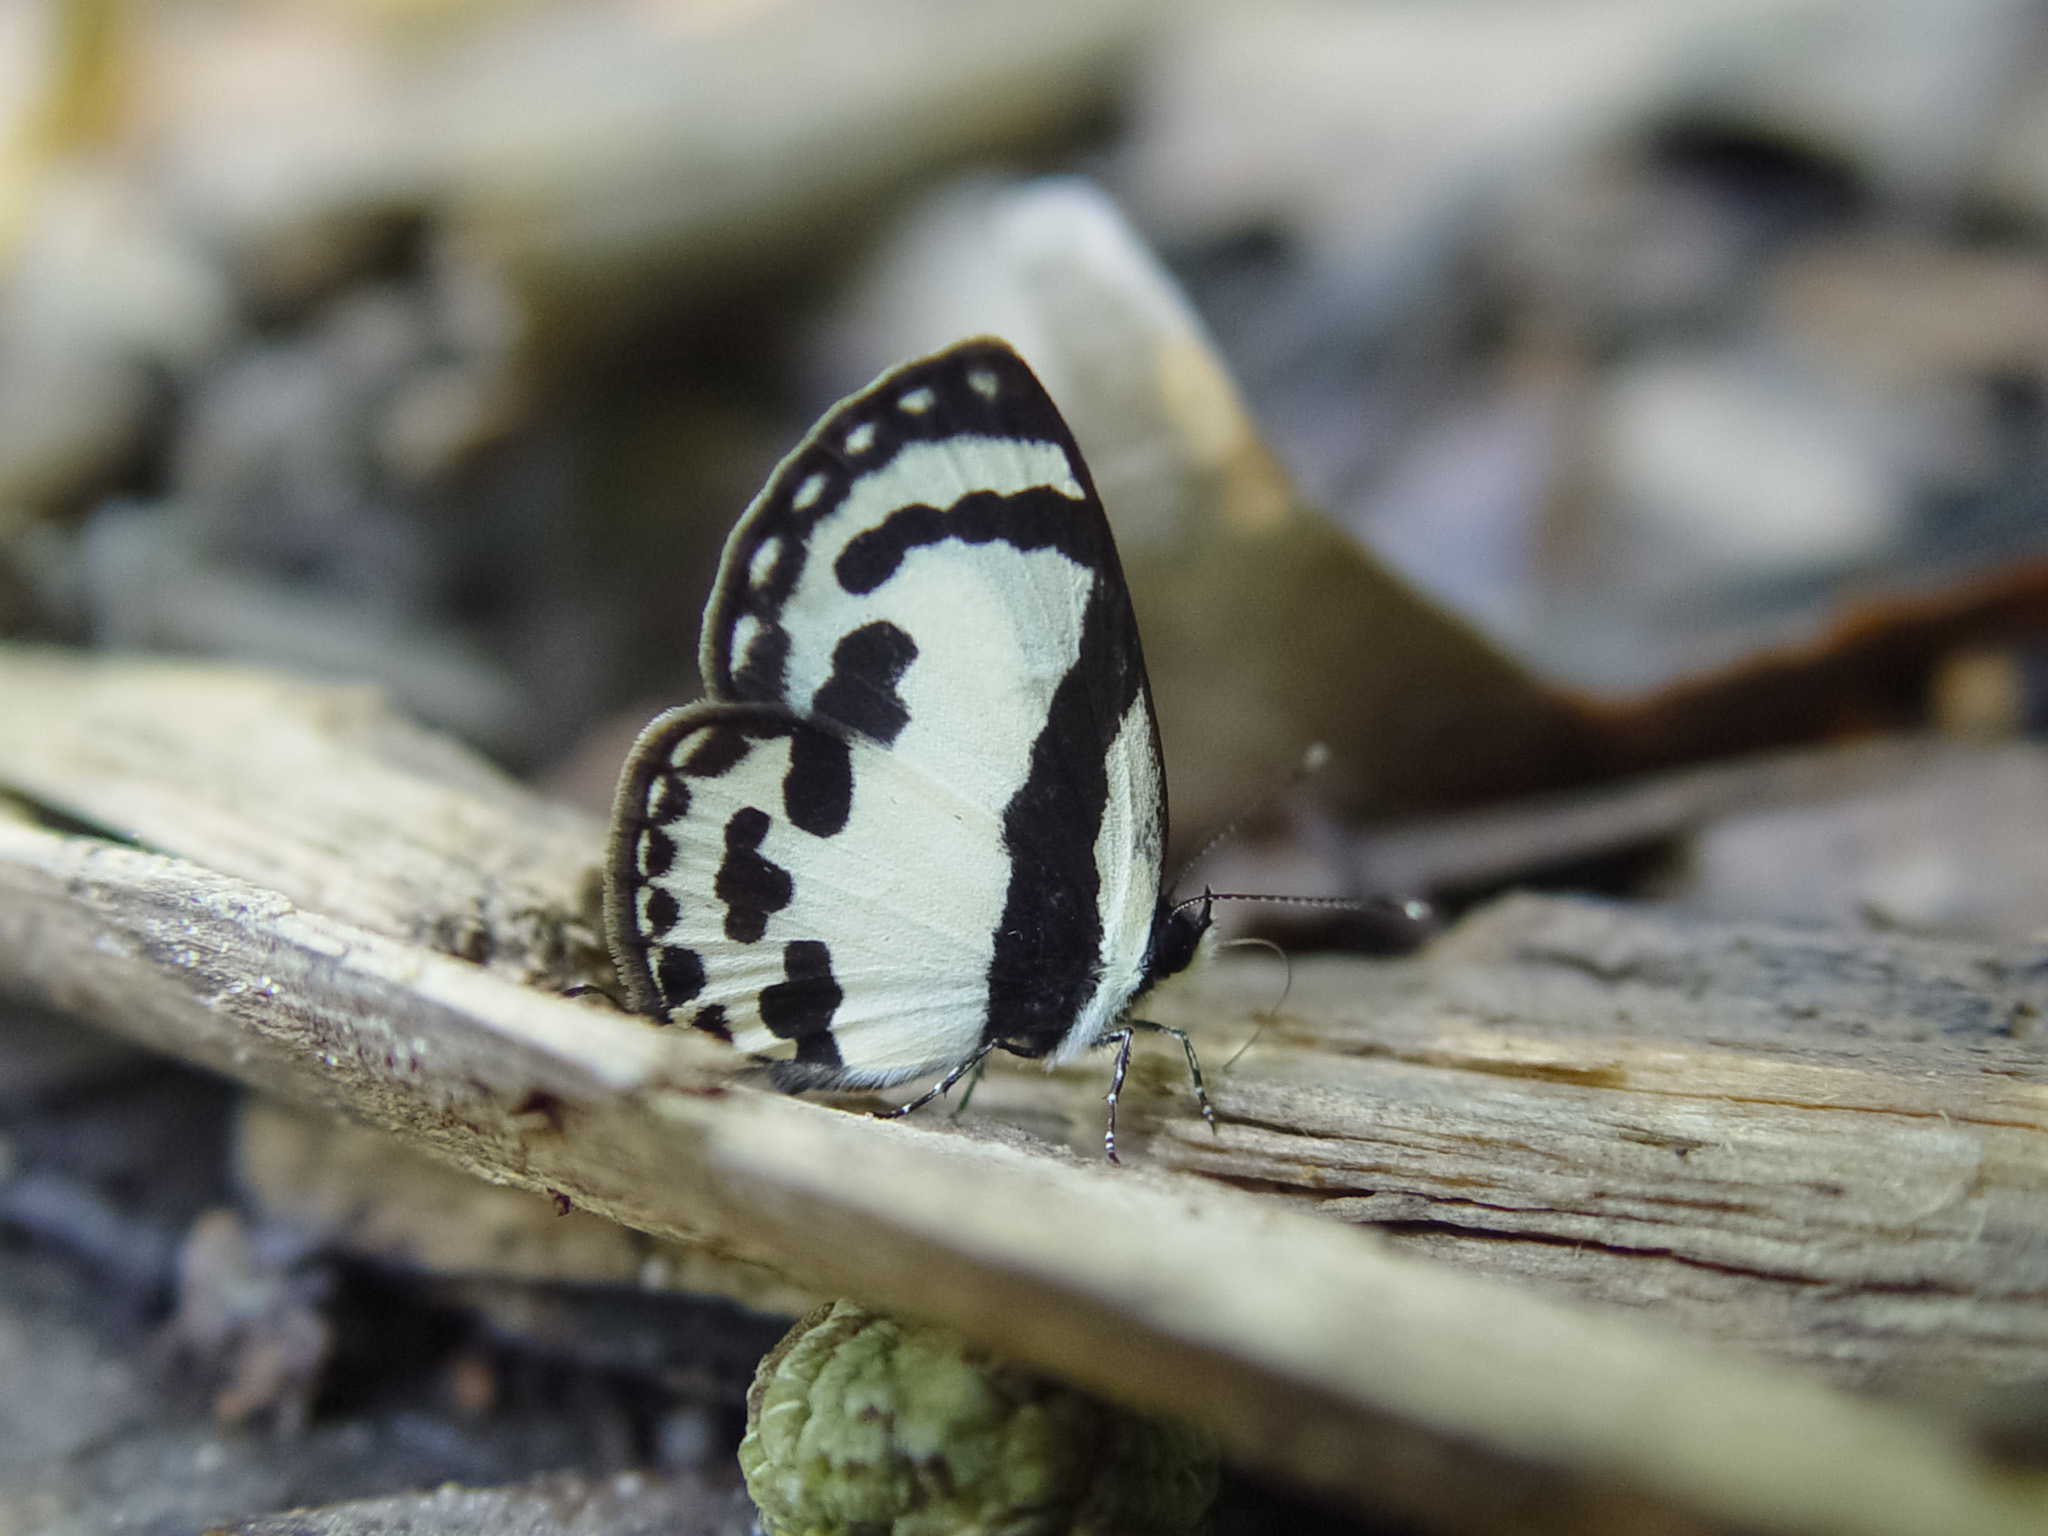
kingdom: Animalia
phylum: Arthropoda
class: Insecta
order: Lepidoptera
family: Lycaenidae
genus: Caleta
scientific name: Caleta roxus
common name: Straight pierrot
